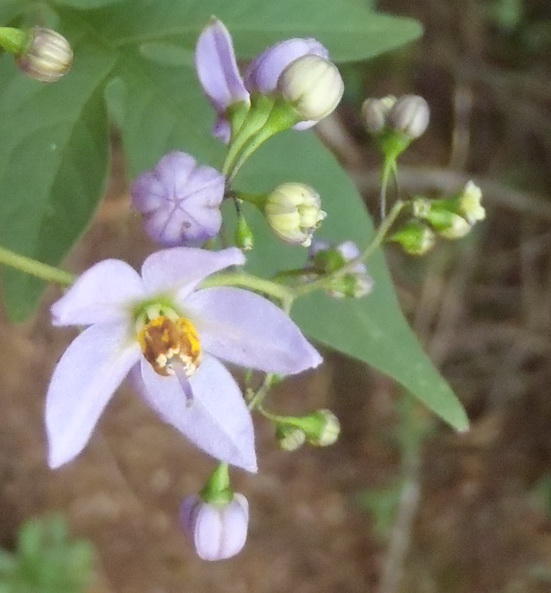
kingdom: Plantae
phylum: Tracheophyta
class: Magnoliopsida
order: Solanales
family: Solanaceae
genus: Solanum
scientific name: Solanum seaforthianum
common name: Brazilian nightshade
